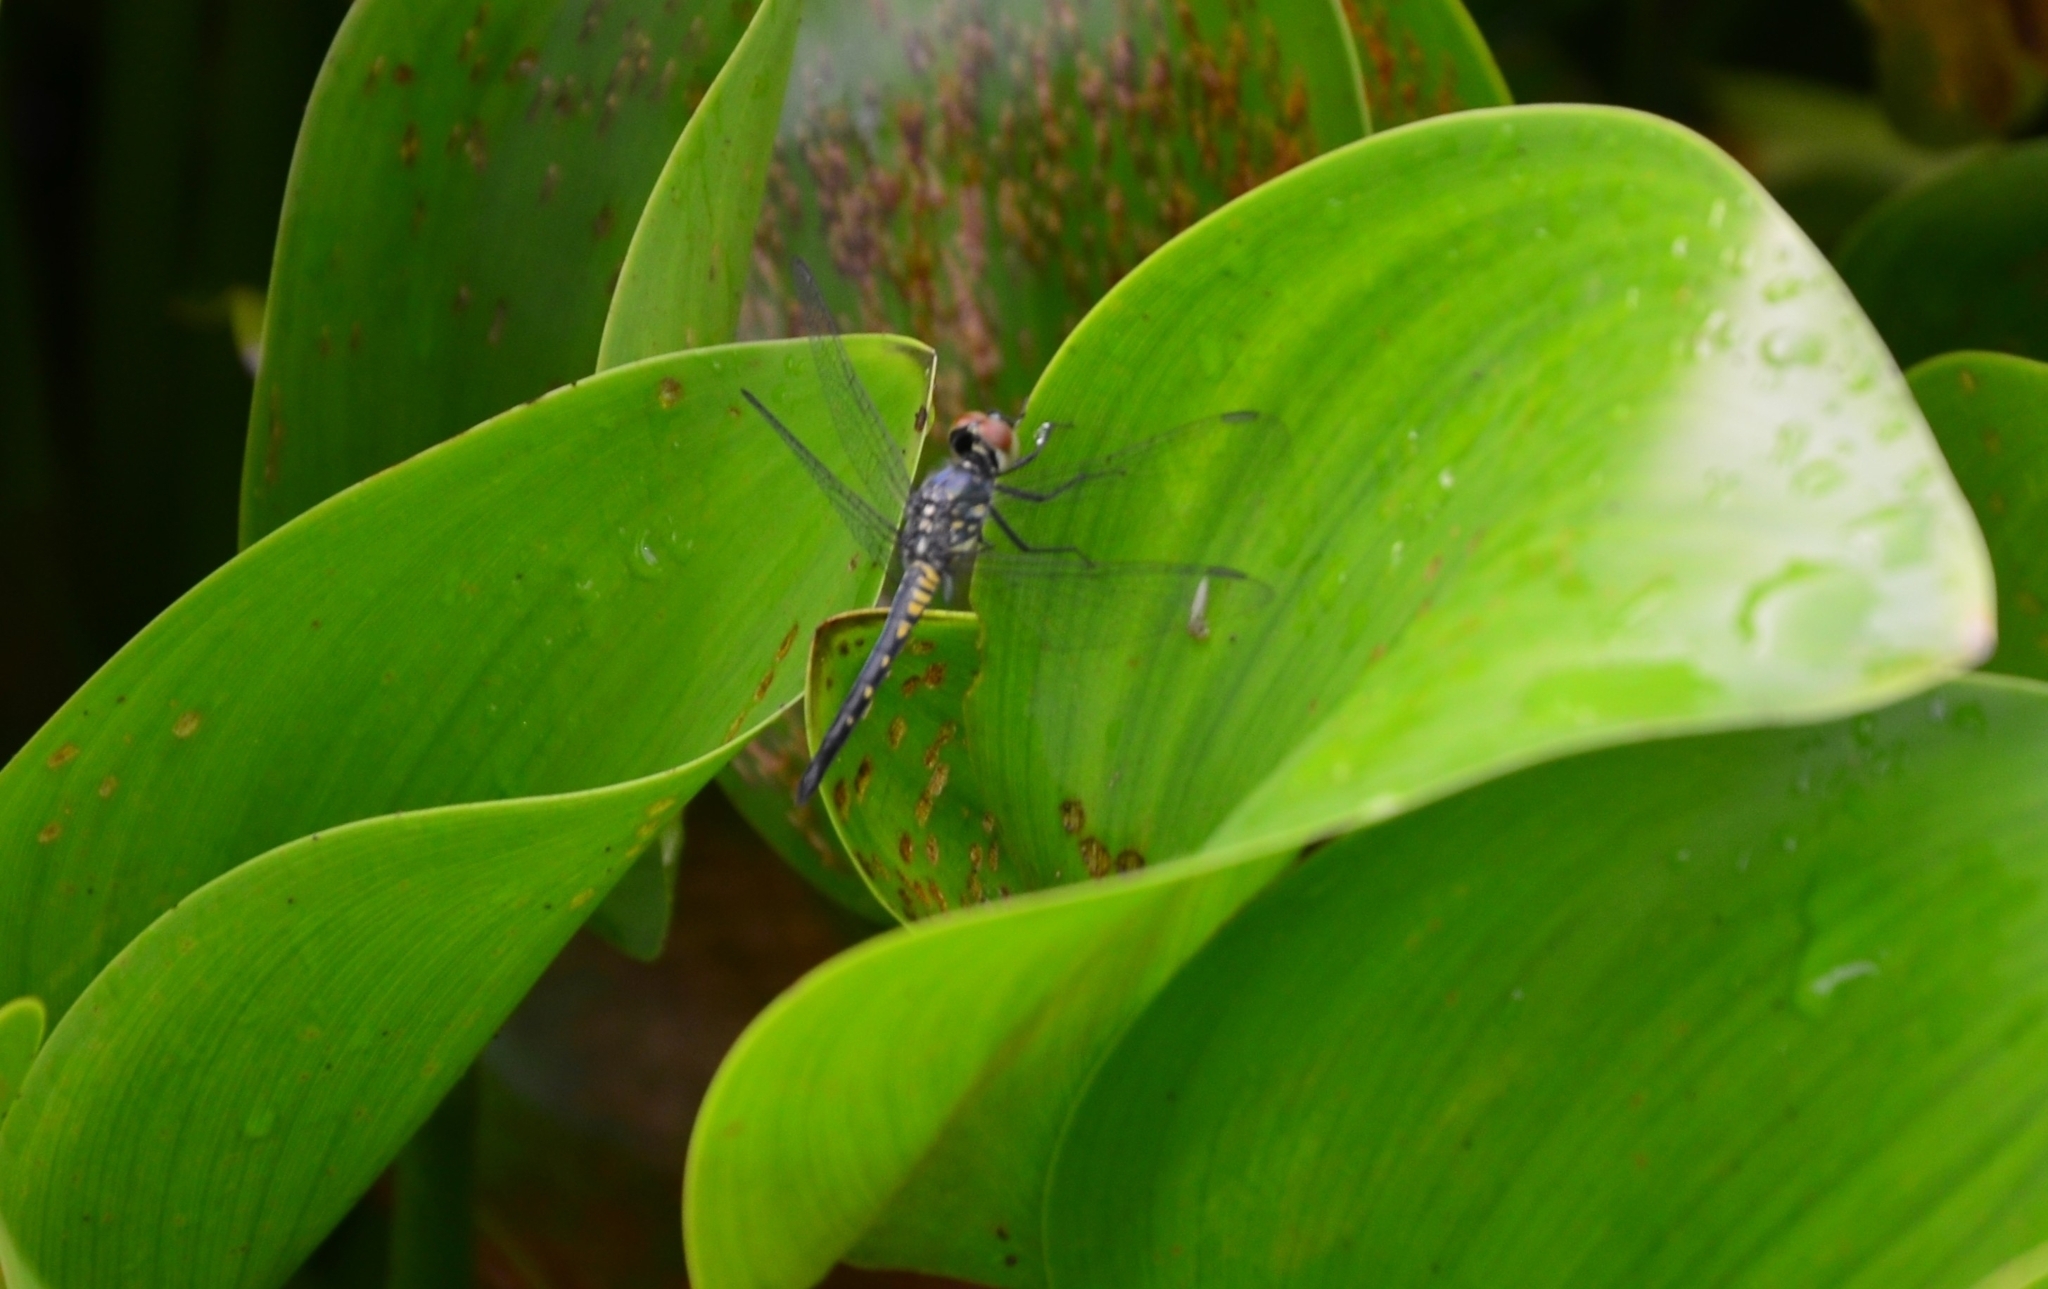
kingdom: Animalia
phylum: Arthropoda
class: Insecta
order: Odonata
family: Libellulidae
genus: Brachydiplax
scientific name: Brachydiplax sobrina
